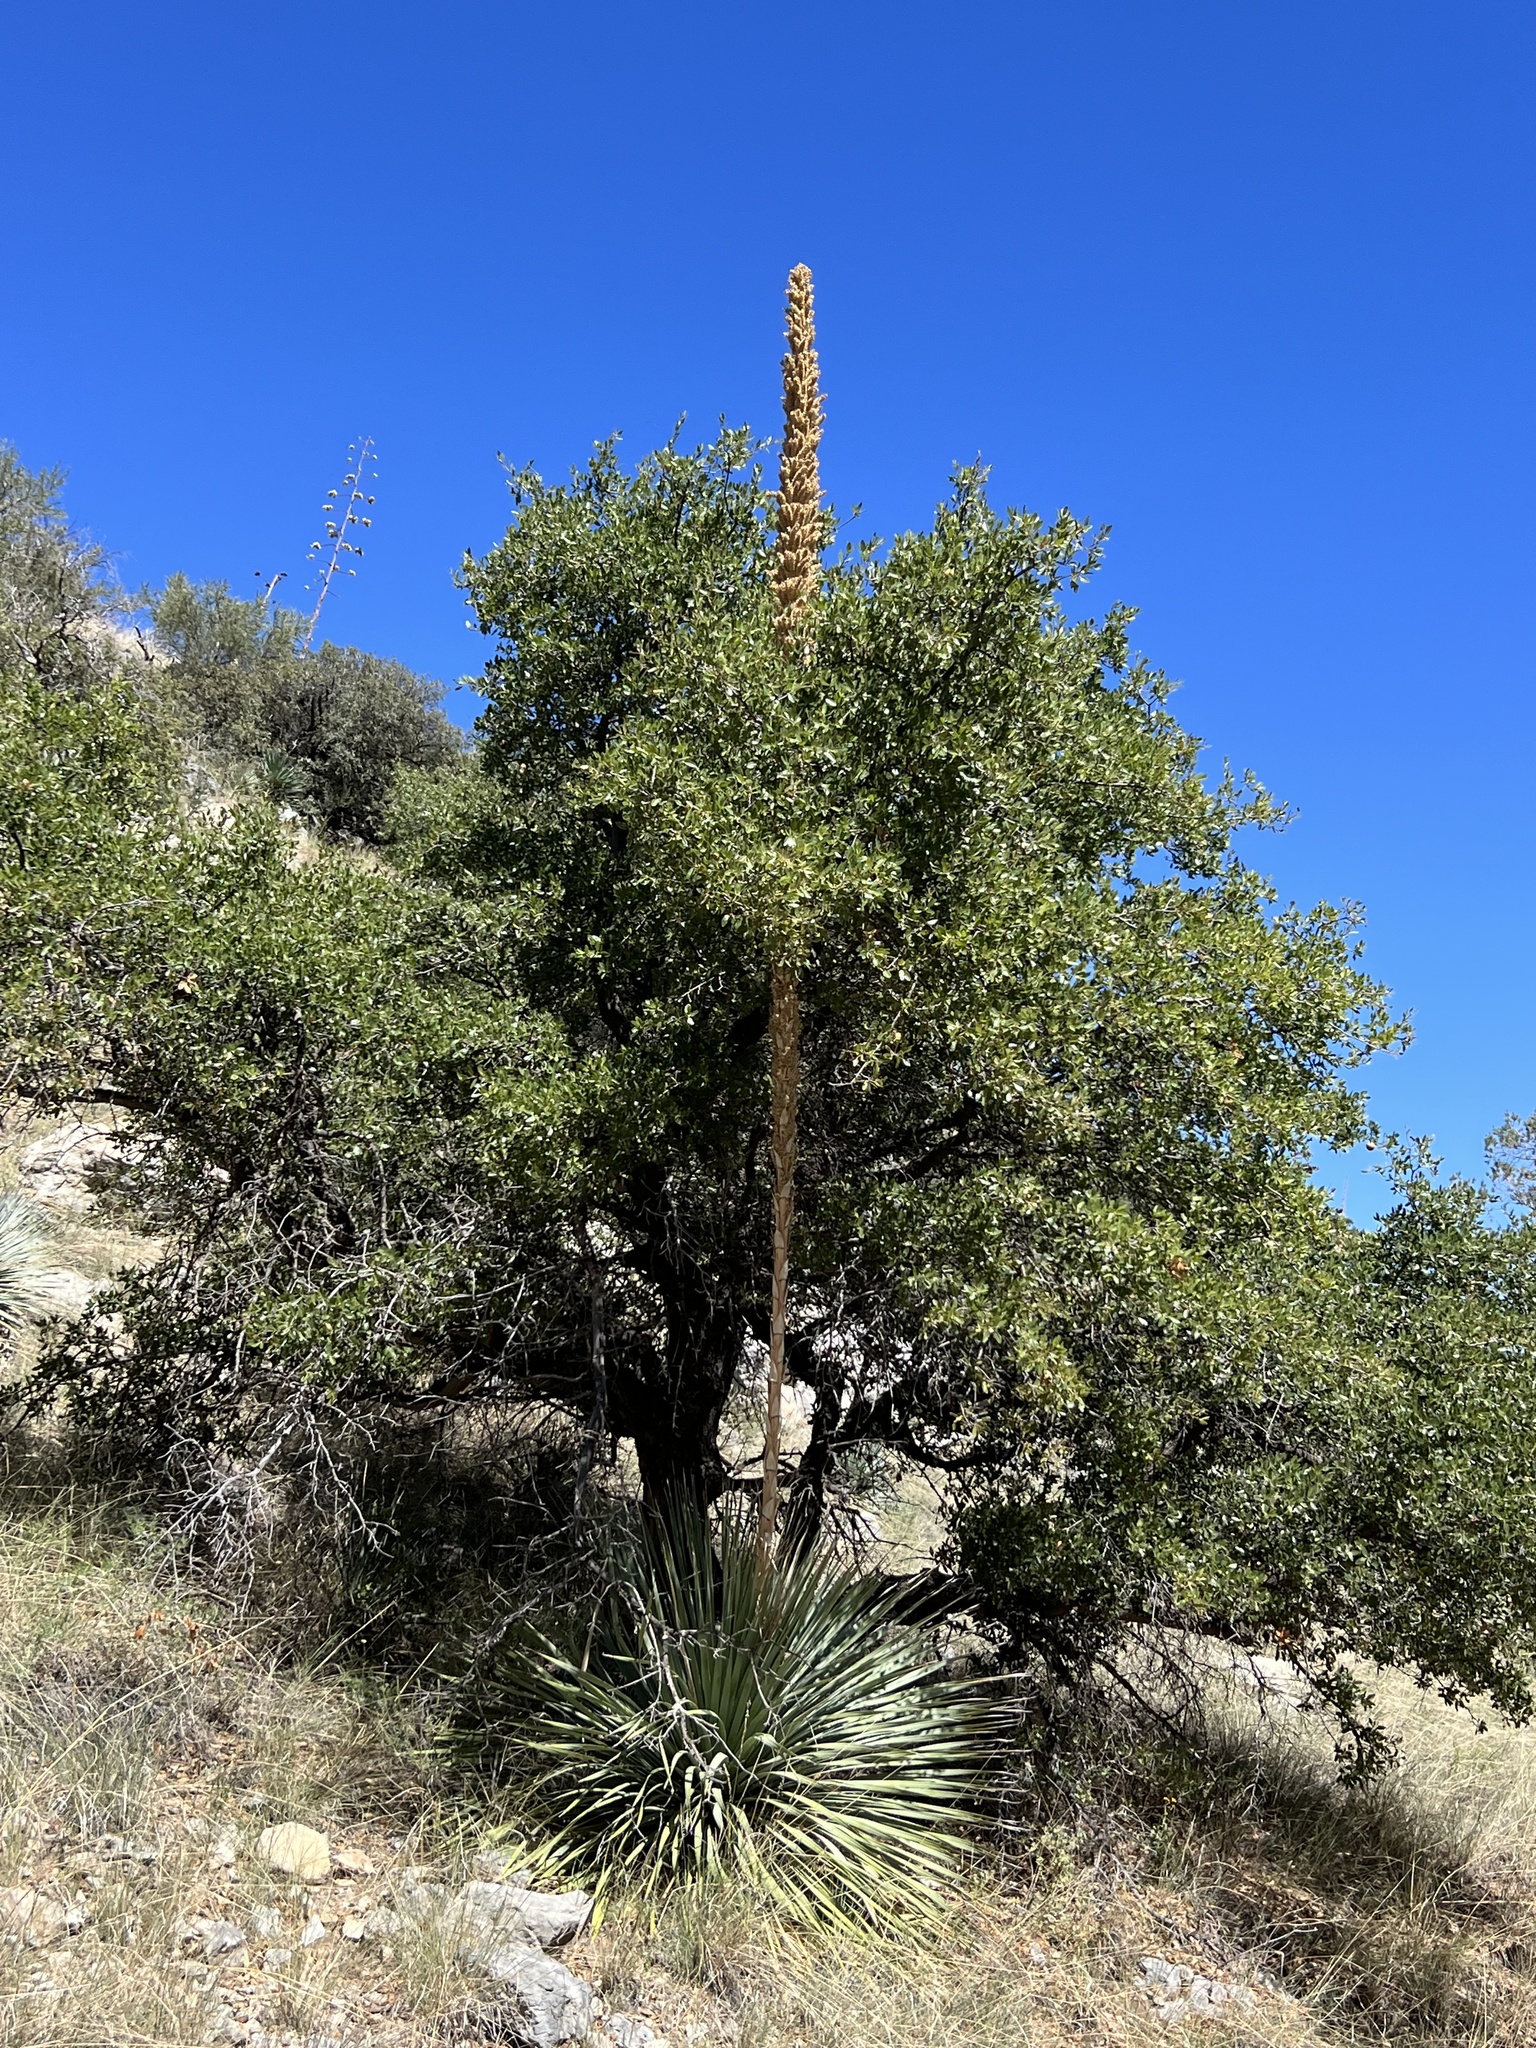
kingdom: Plantae
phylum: Tracheophyta
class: Liliopsida
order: Asparagales
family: Asparagaceae
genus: Dasylirion
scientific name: Dasylirion wheeleri
